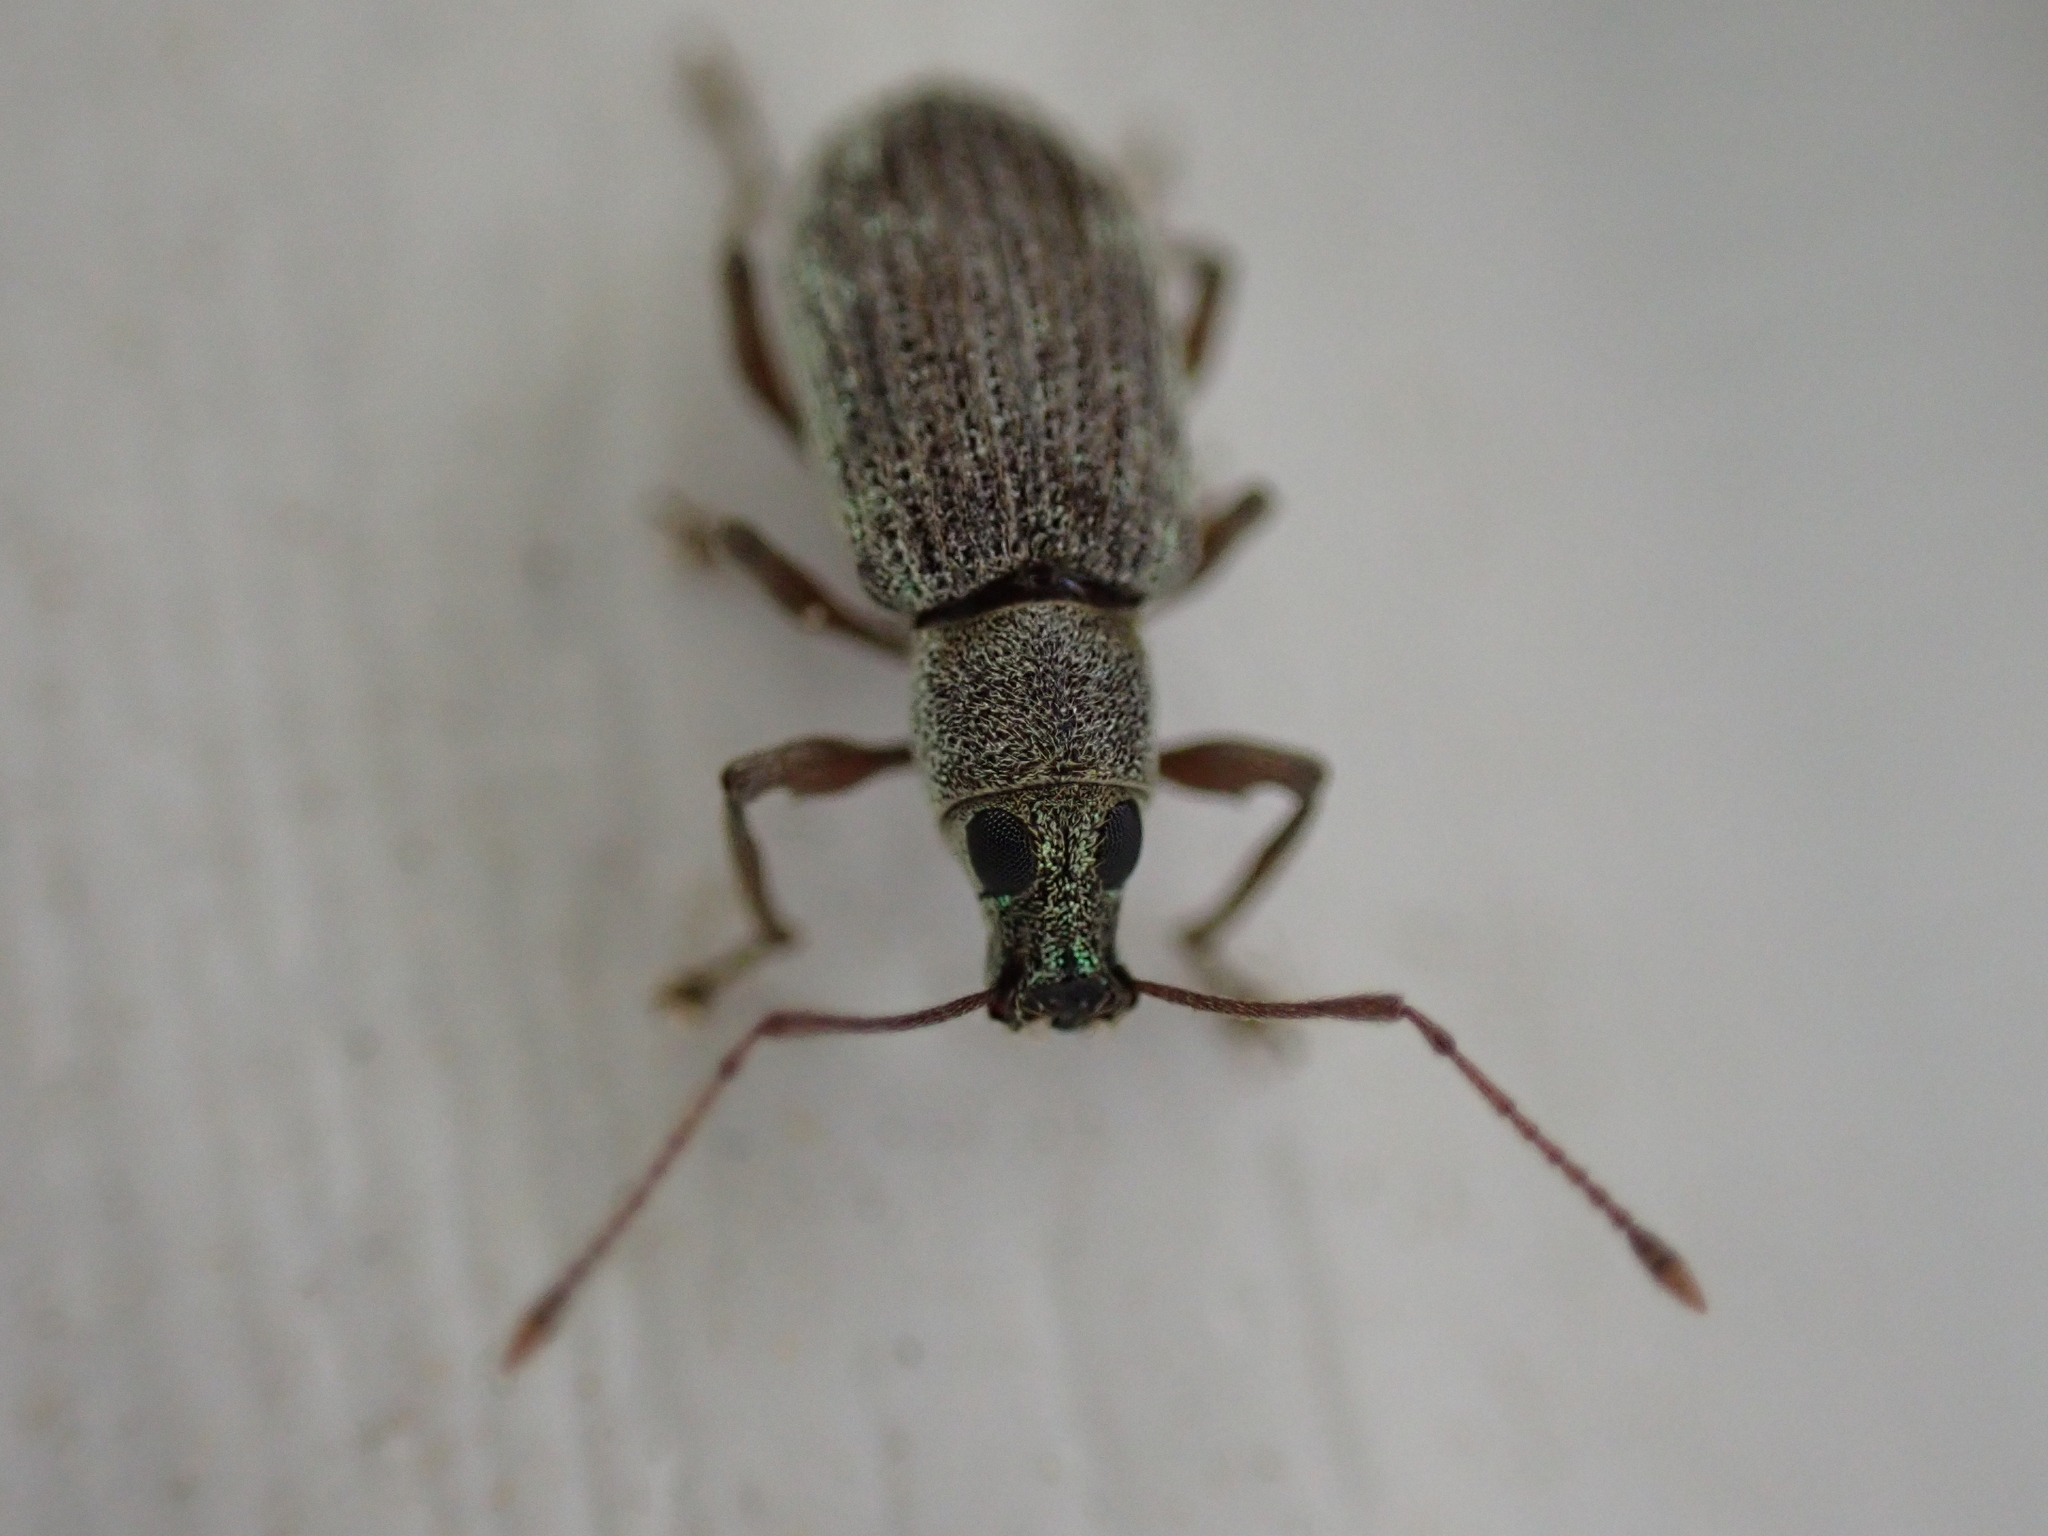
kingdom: Animalia
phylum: Arthropoda
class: Insecta
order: Coleoptera
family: Curculionidae
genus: Cyrtepistomus
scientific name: Cyrtepistomus castaneus
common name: Weevil
